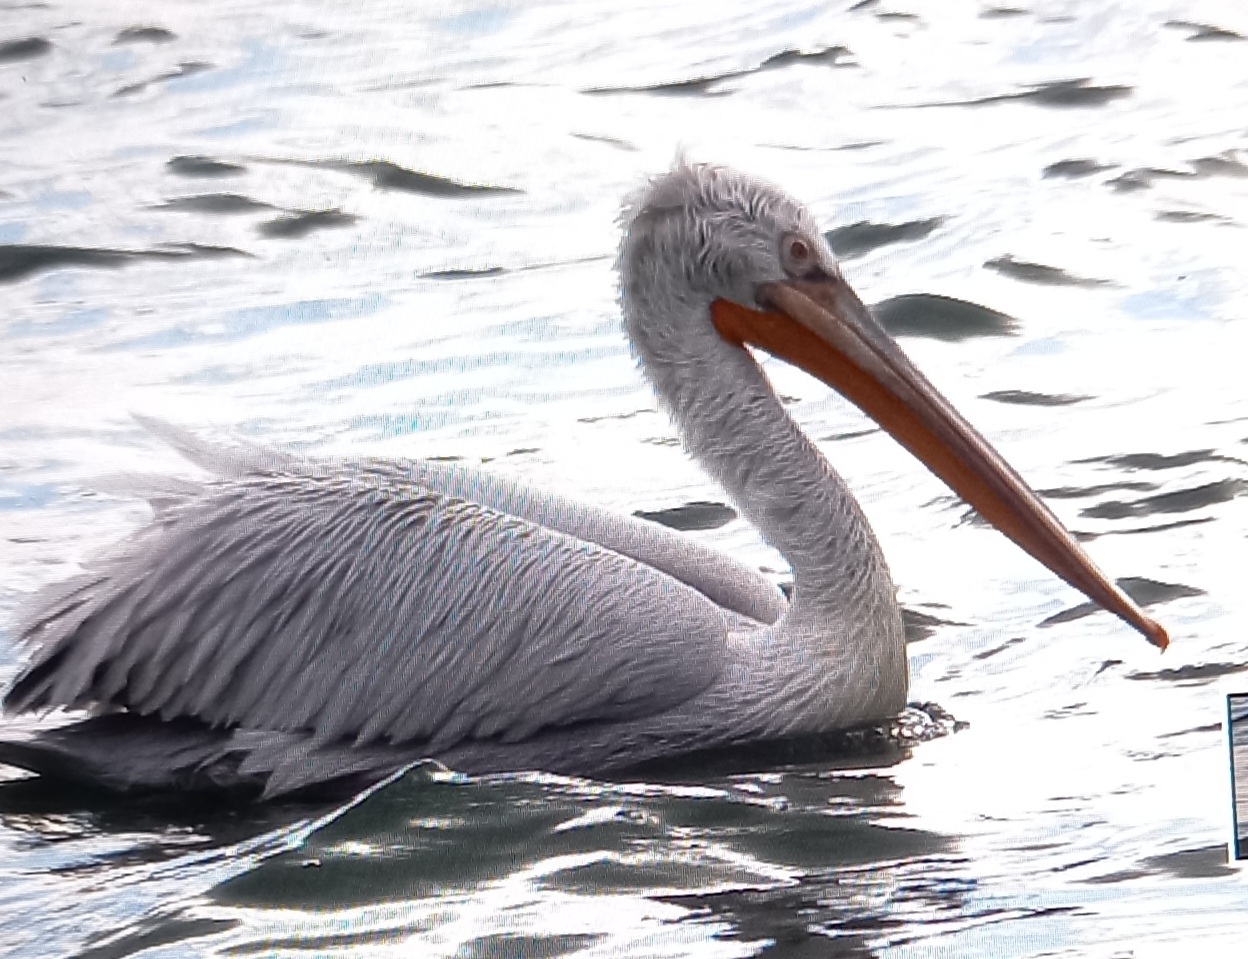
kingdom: Animalia
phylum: Chordata
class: Aves
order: Pelecaniformes
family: Pelecanidae
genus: Pelecanus
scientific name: Pelecanus crispus
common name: Dalmatian pelican
